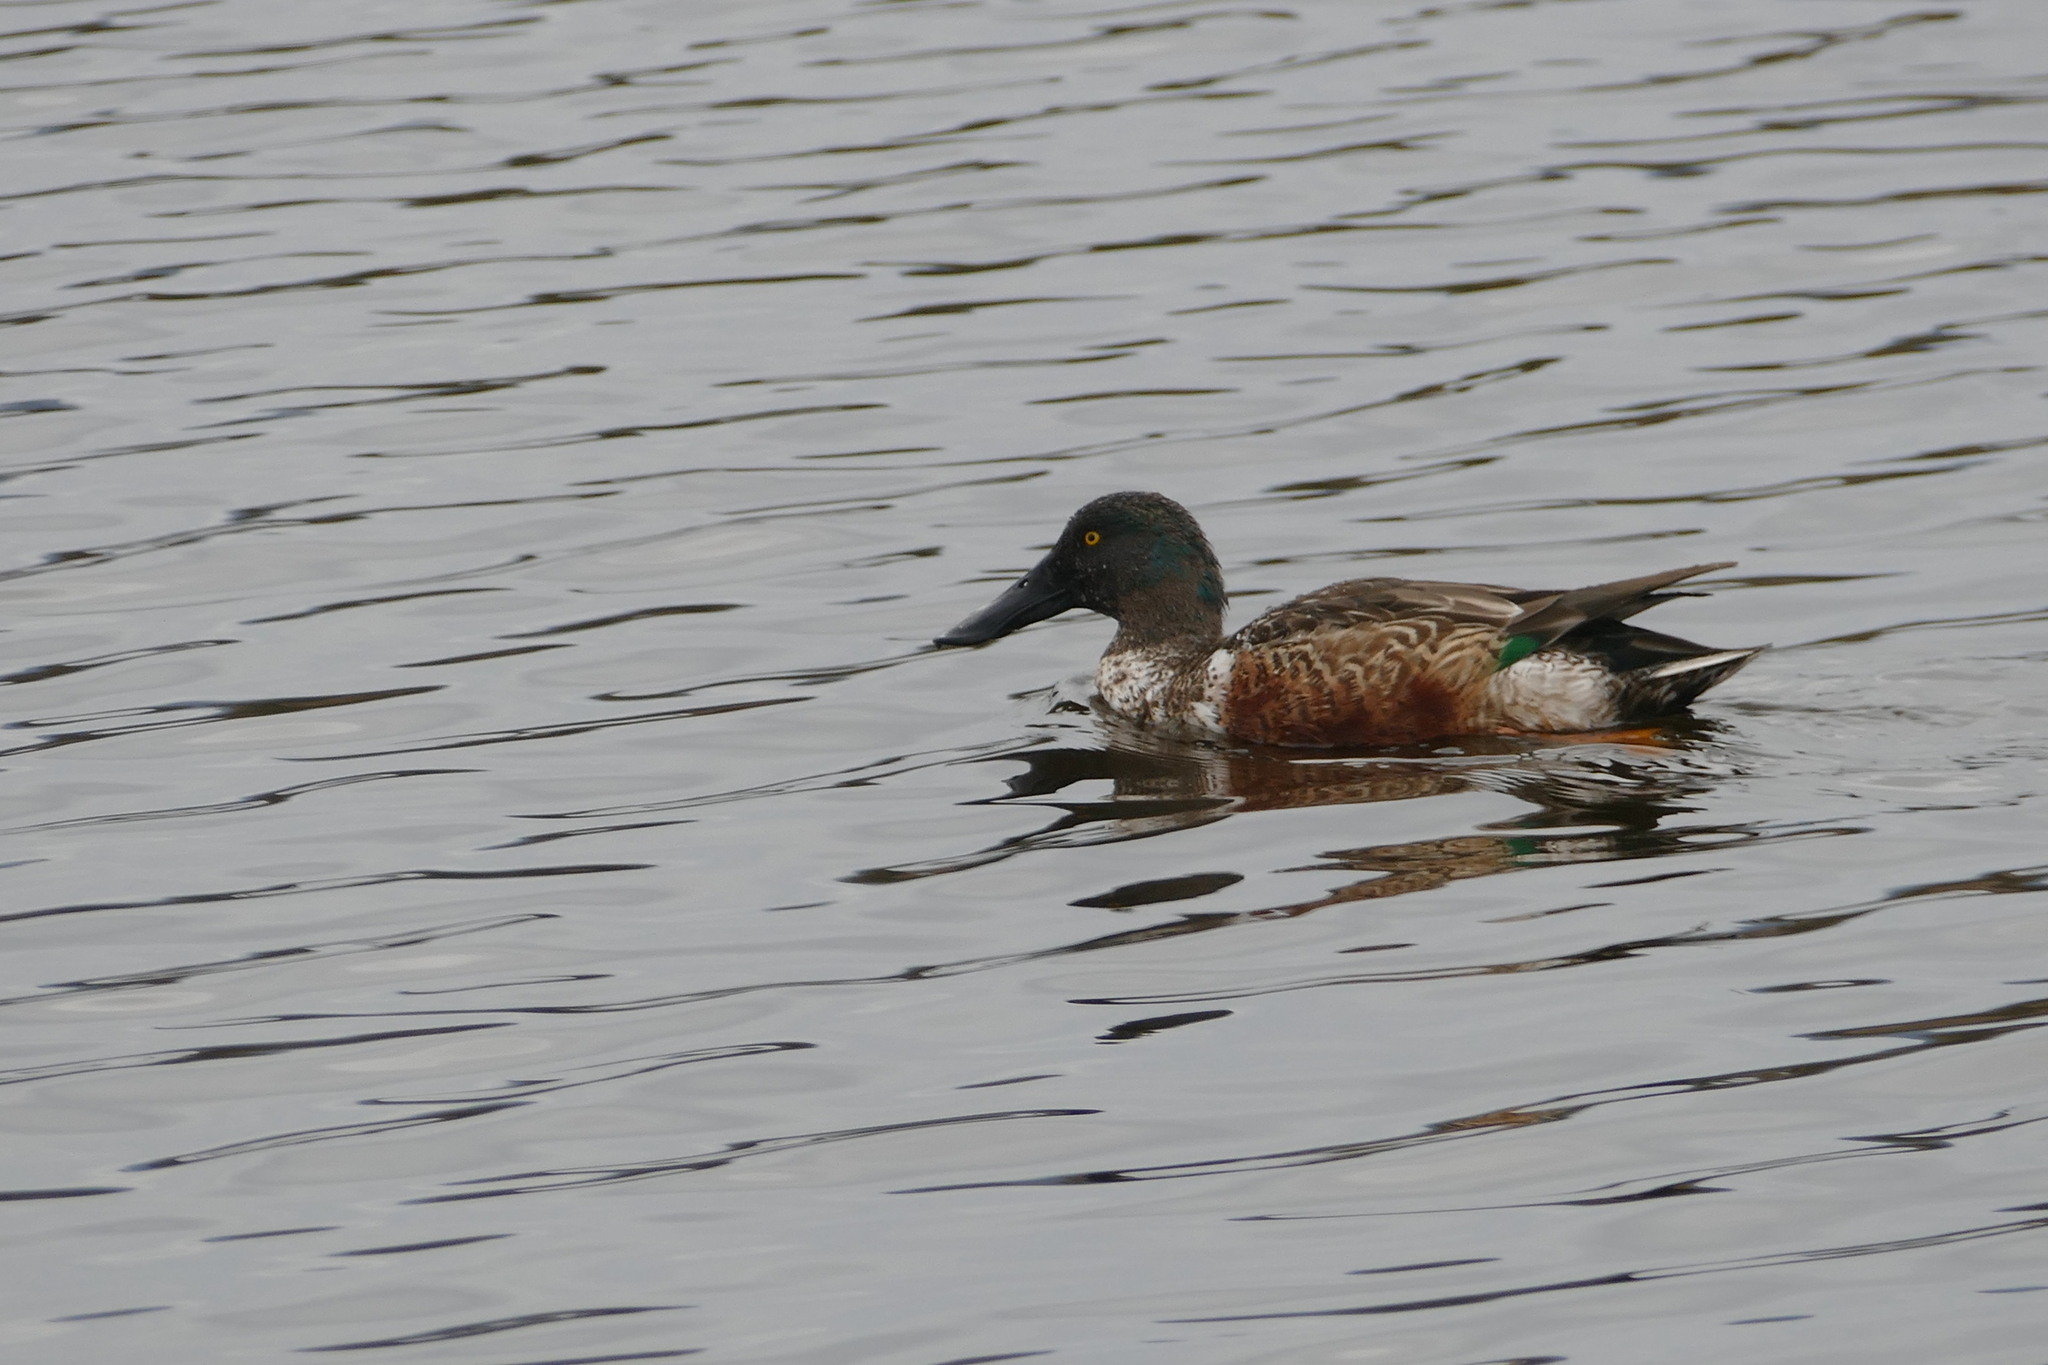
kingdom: Animalia
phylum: Chordata
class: Aves
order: Anseriformes
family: Anatidae
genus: Spatula
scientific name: Spatula clypeata
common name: Northern shoveler
